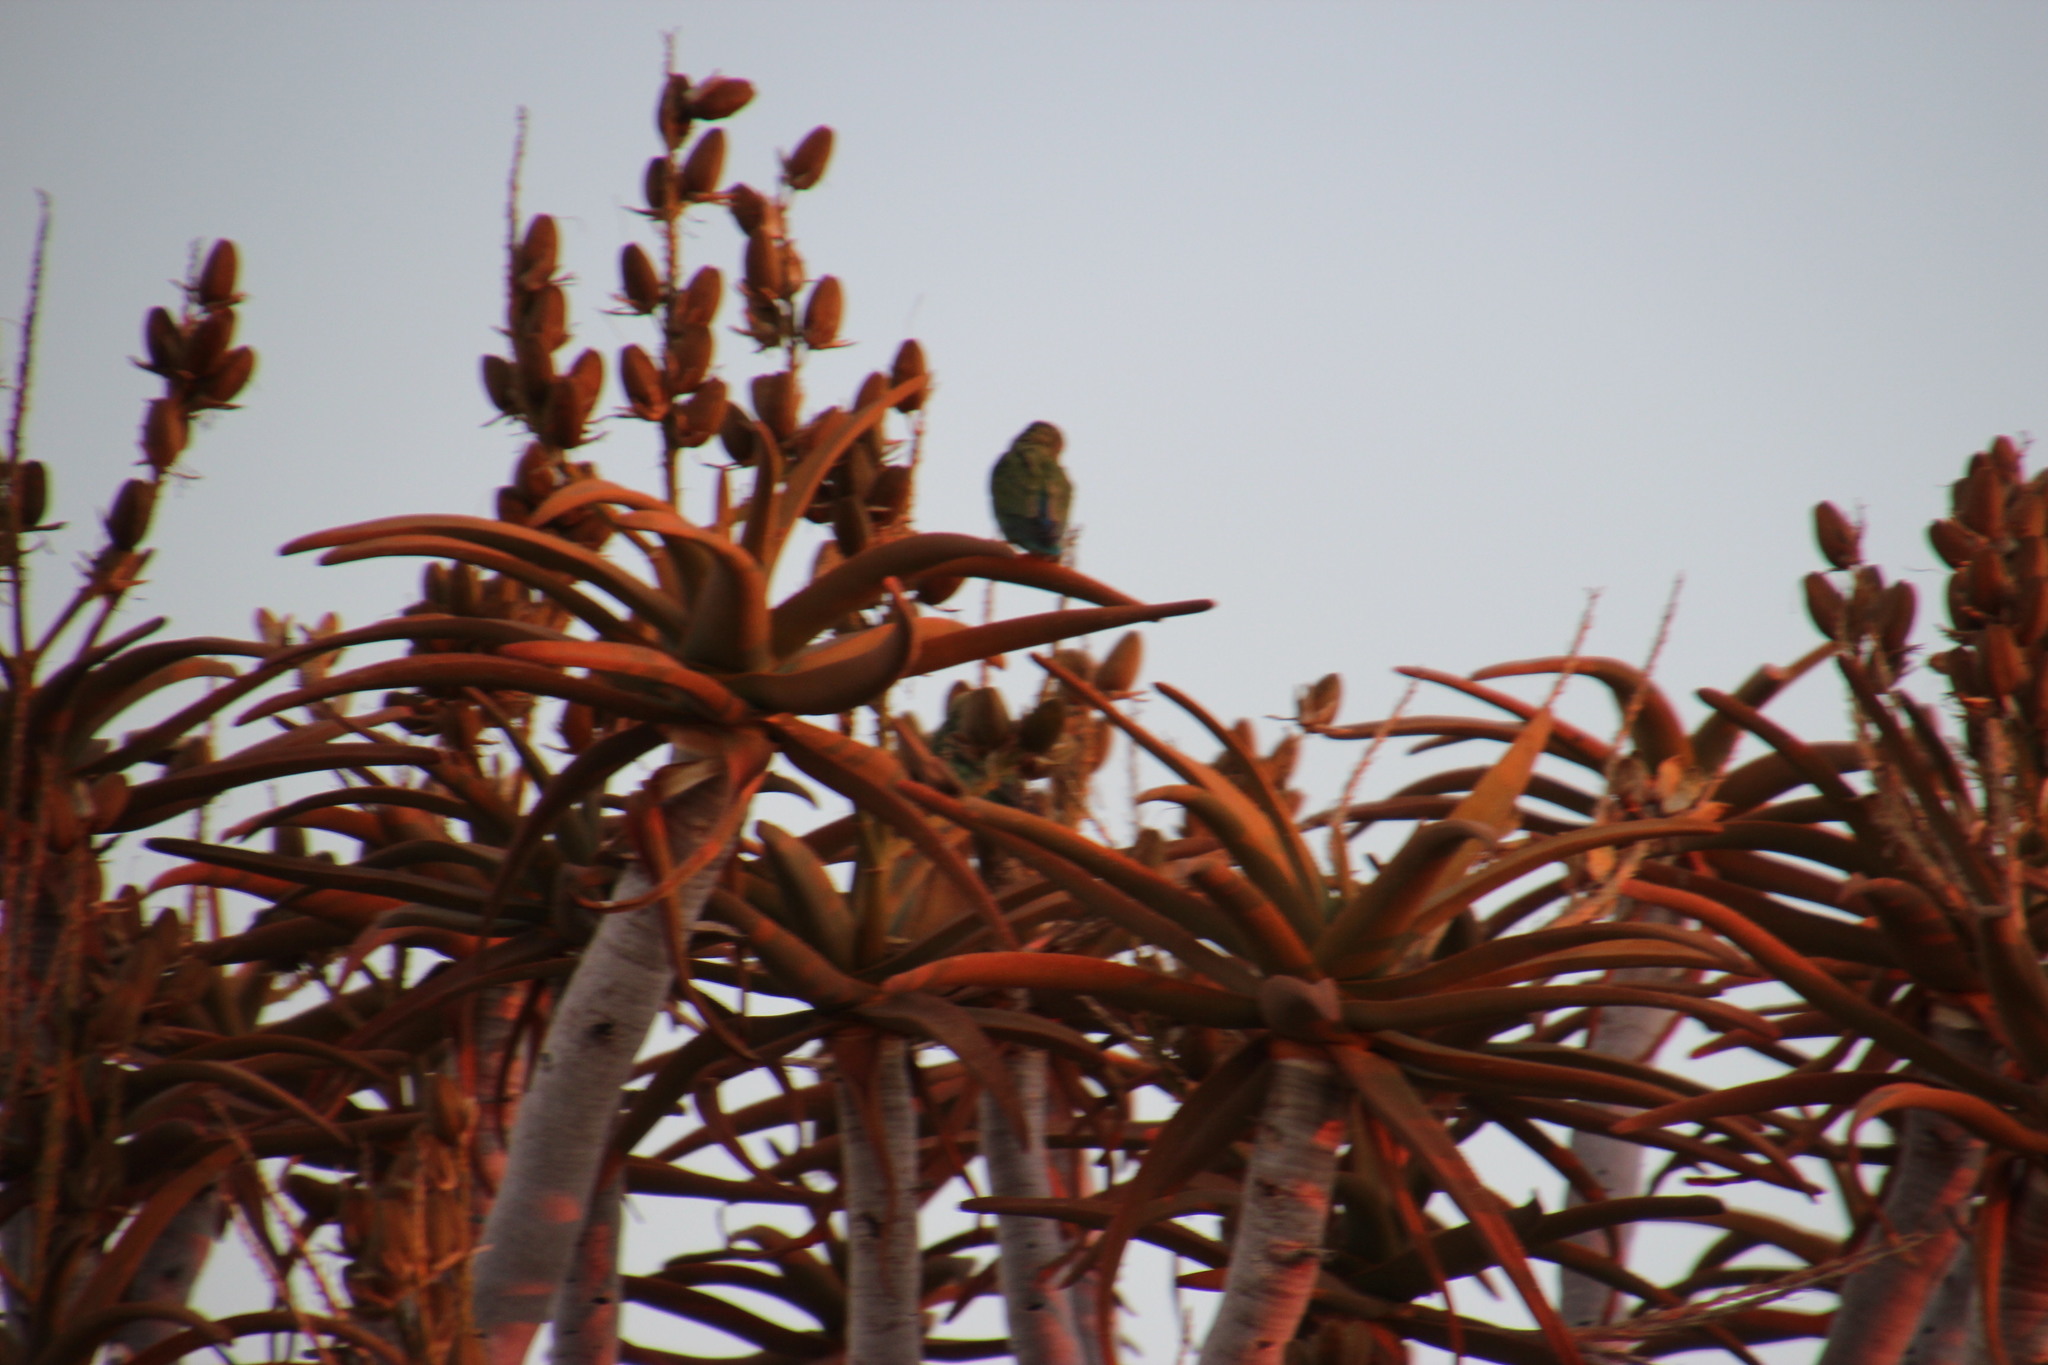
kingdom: Animalia
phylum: Chordata
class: Aves
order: Psittaciformes
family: Psittacidae
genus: Agapornis
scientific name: Agapornis roseicollis
